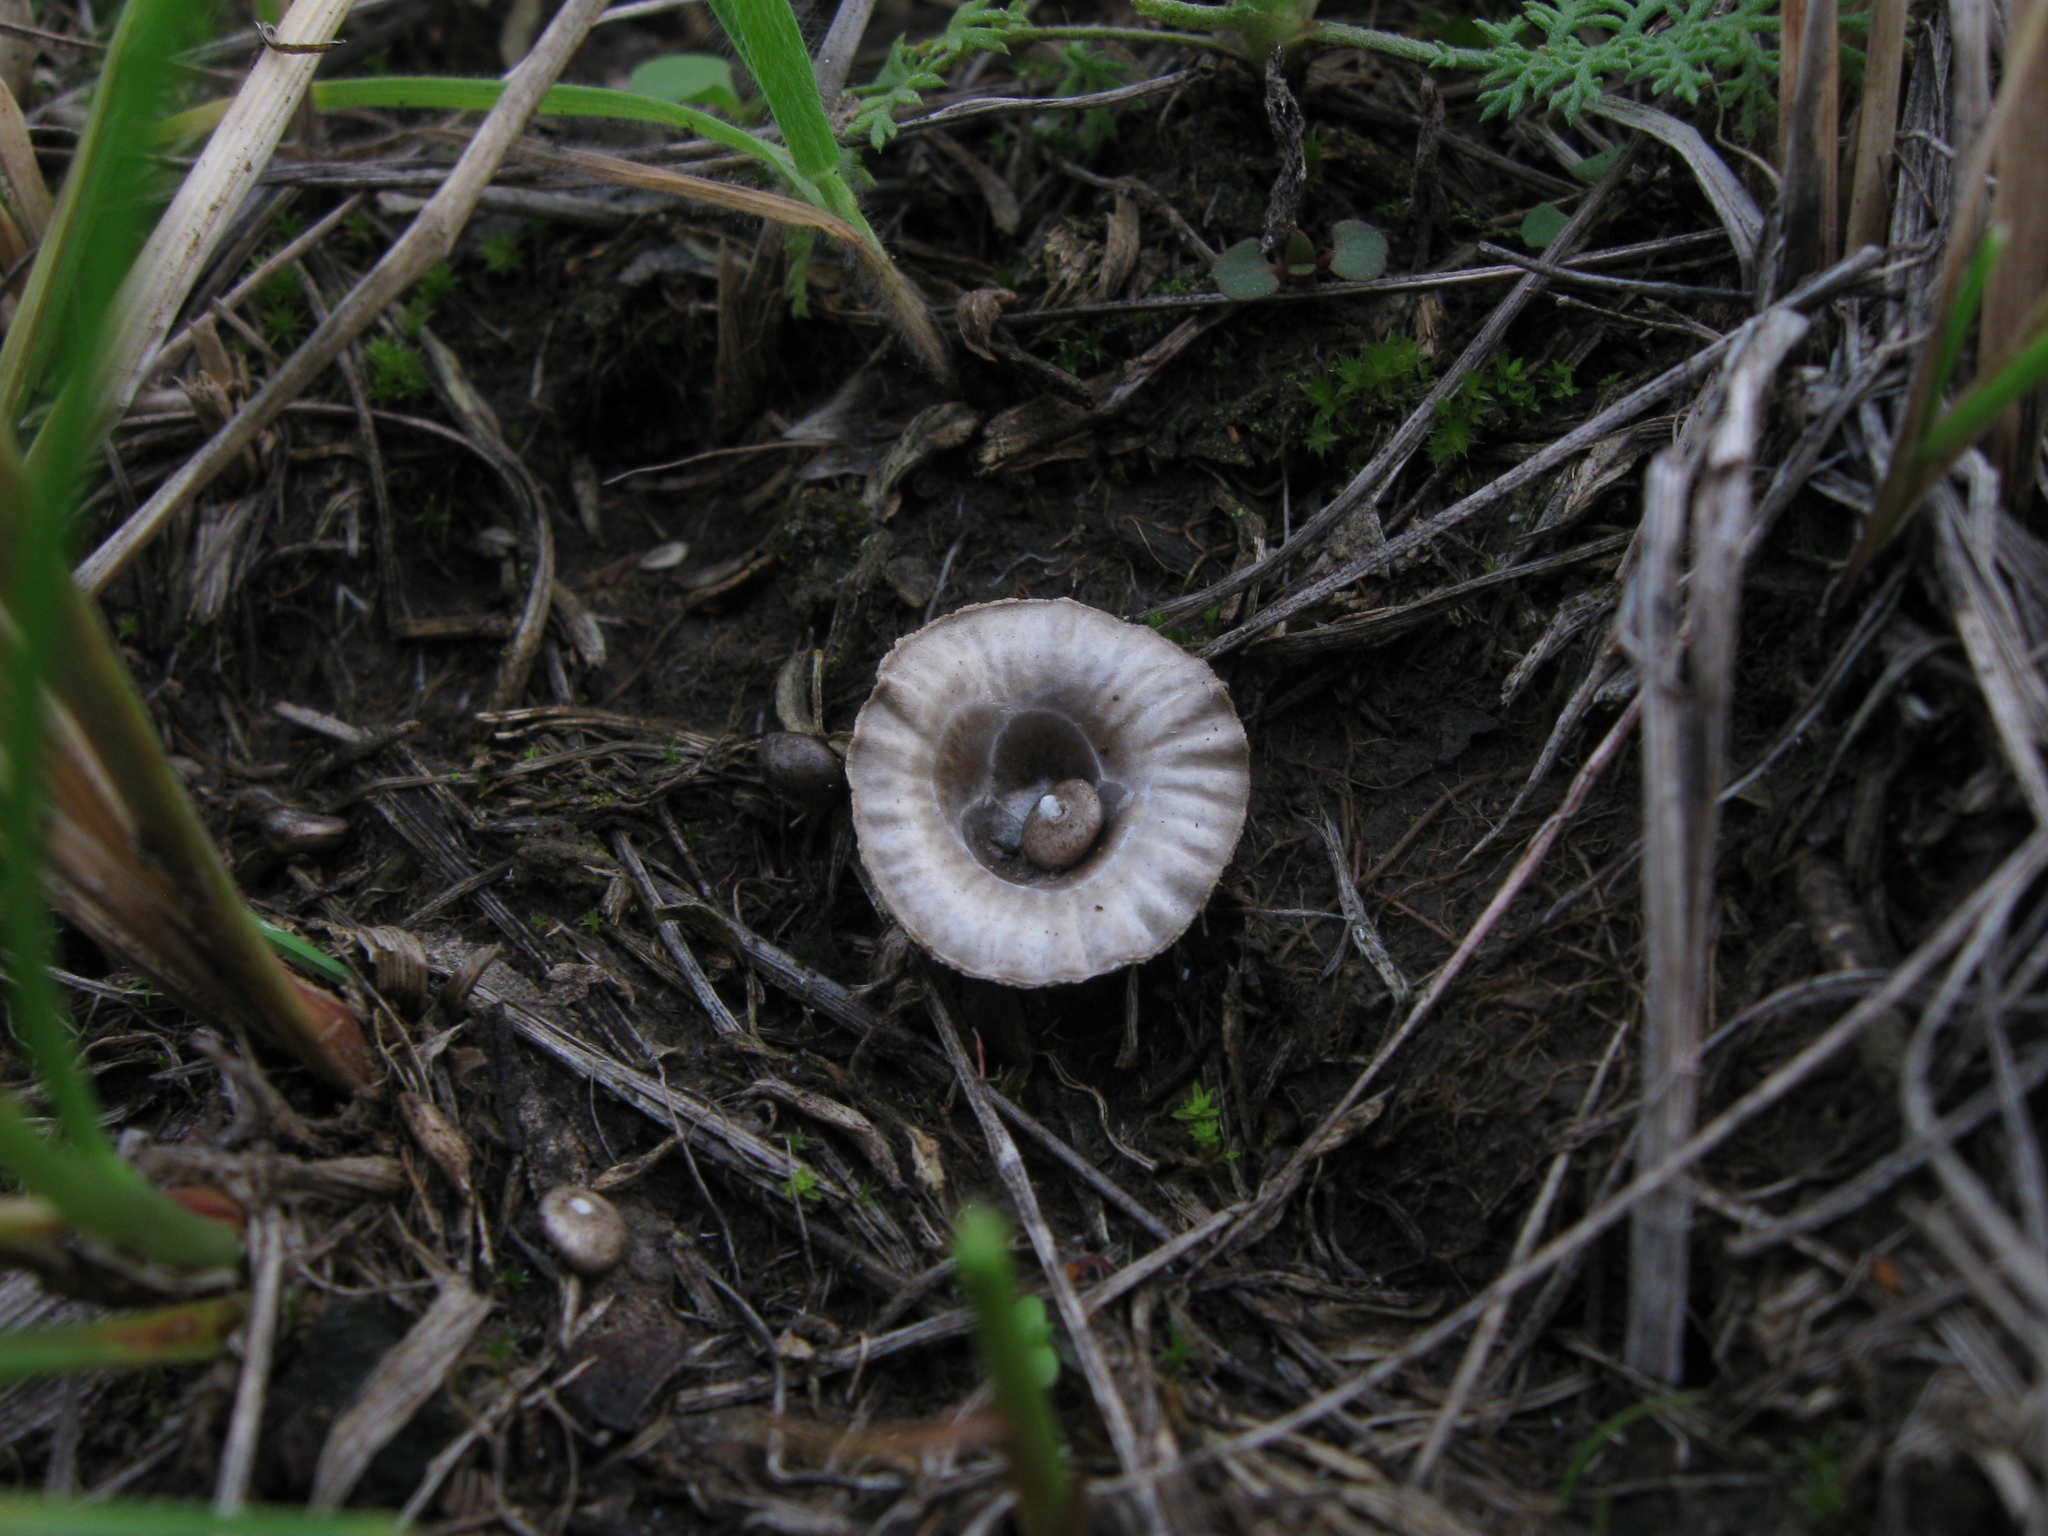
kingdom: Fungi
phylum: Basidiomycota
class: Agaricomycetes
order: Agaricales
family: Agaricaceae
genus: Cyathus
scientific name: Cyathus olla
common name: Field bird's nest
